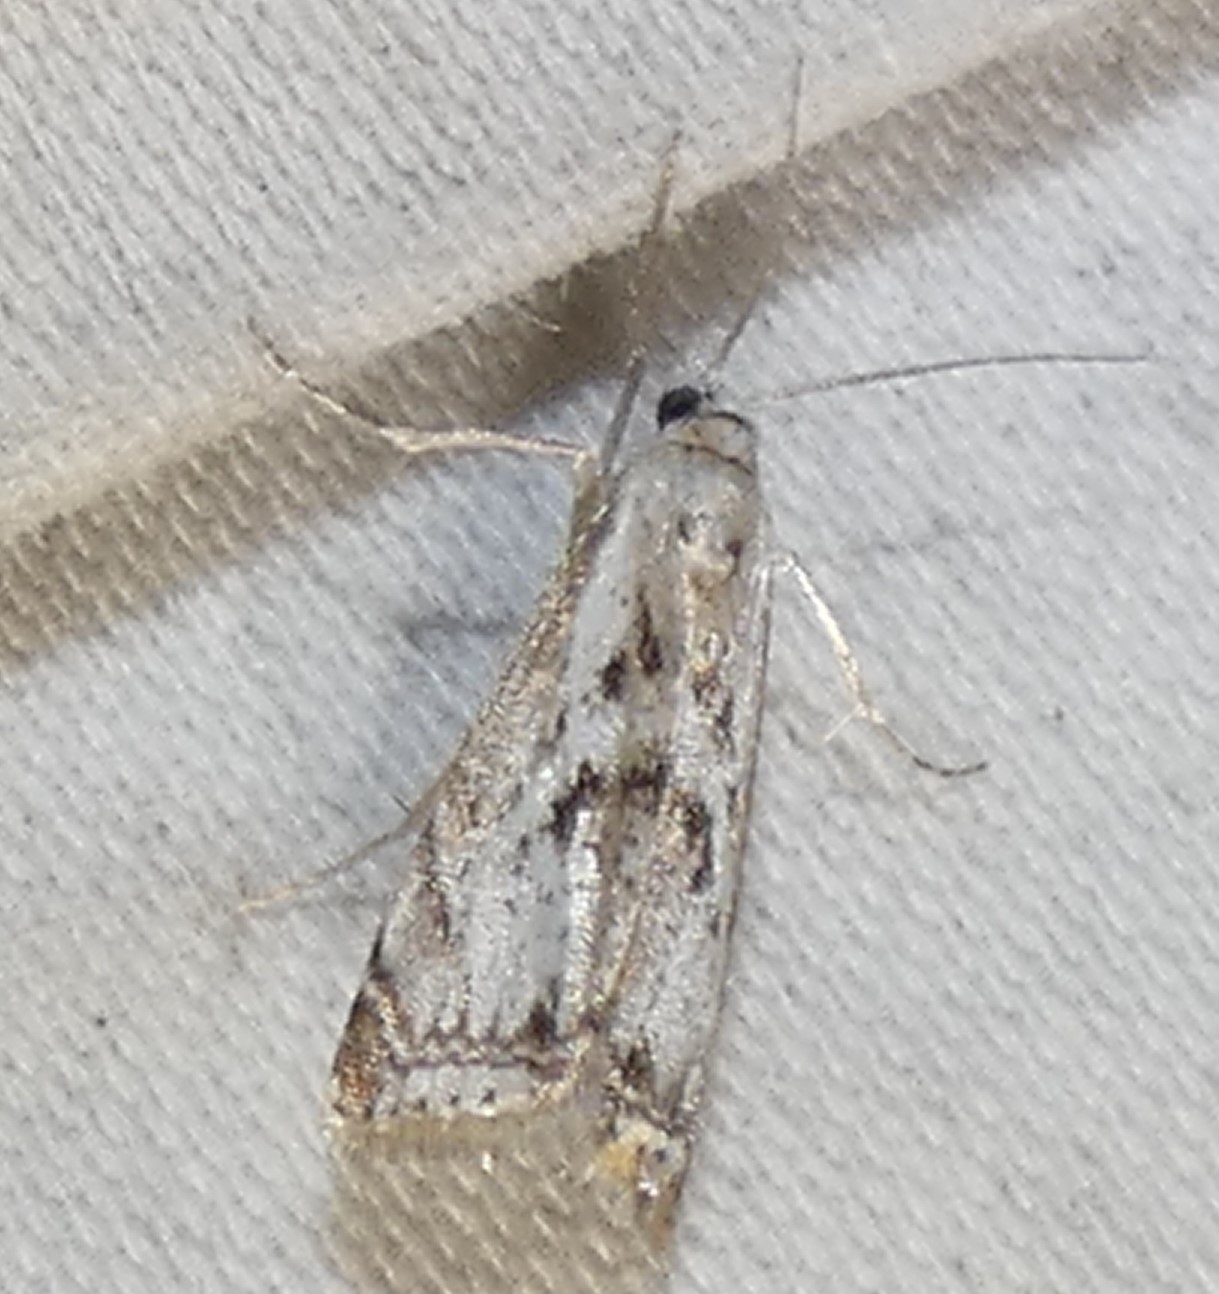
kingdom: Animalia
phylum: Arthropoda
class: Insecta
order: Lepidoptera
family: Crambidae
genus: Microcrambus
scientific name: Microcrambus elegans
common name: Elegant grass-veneer
